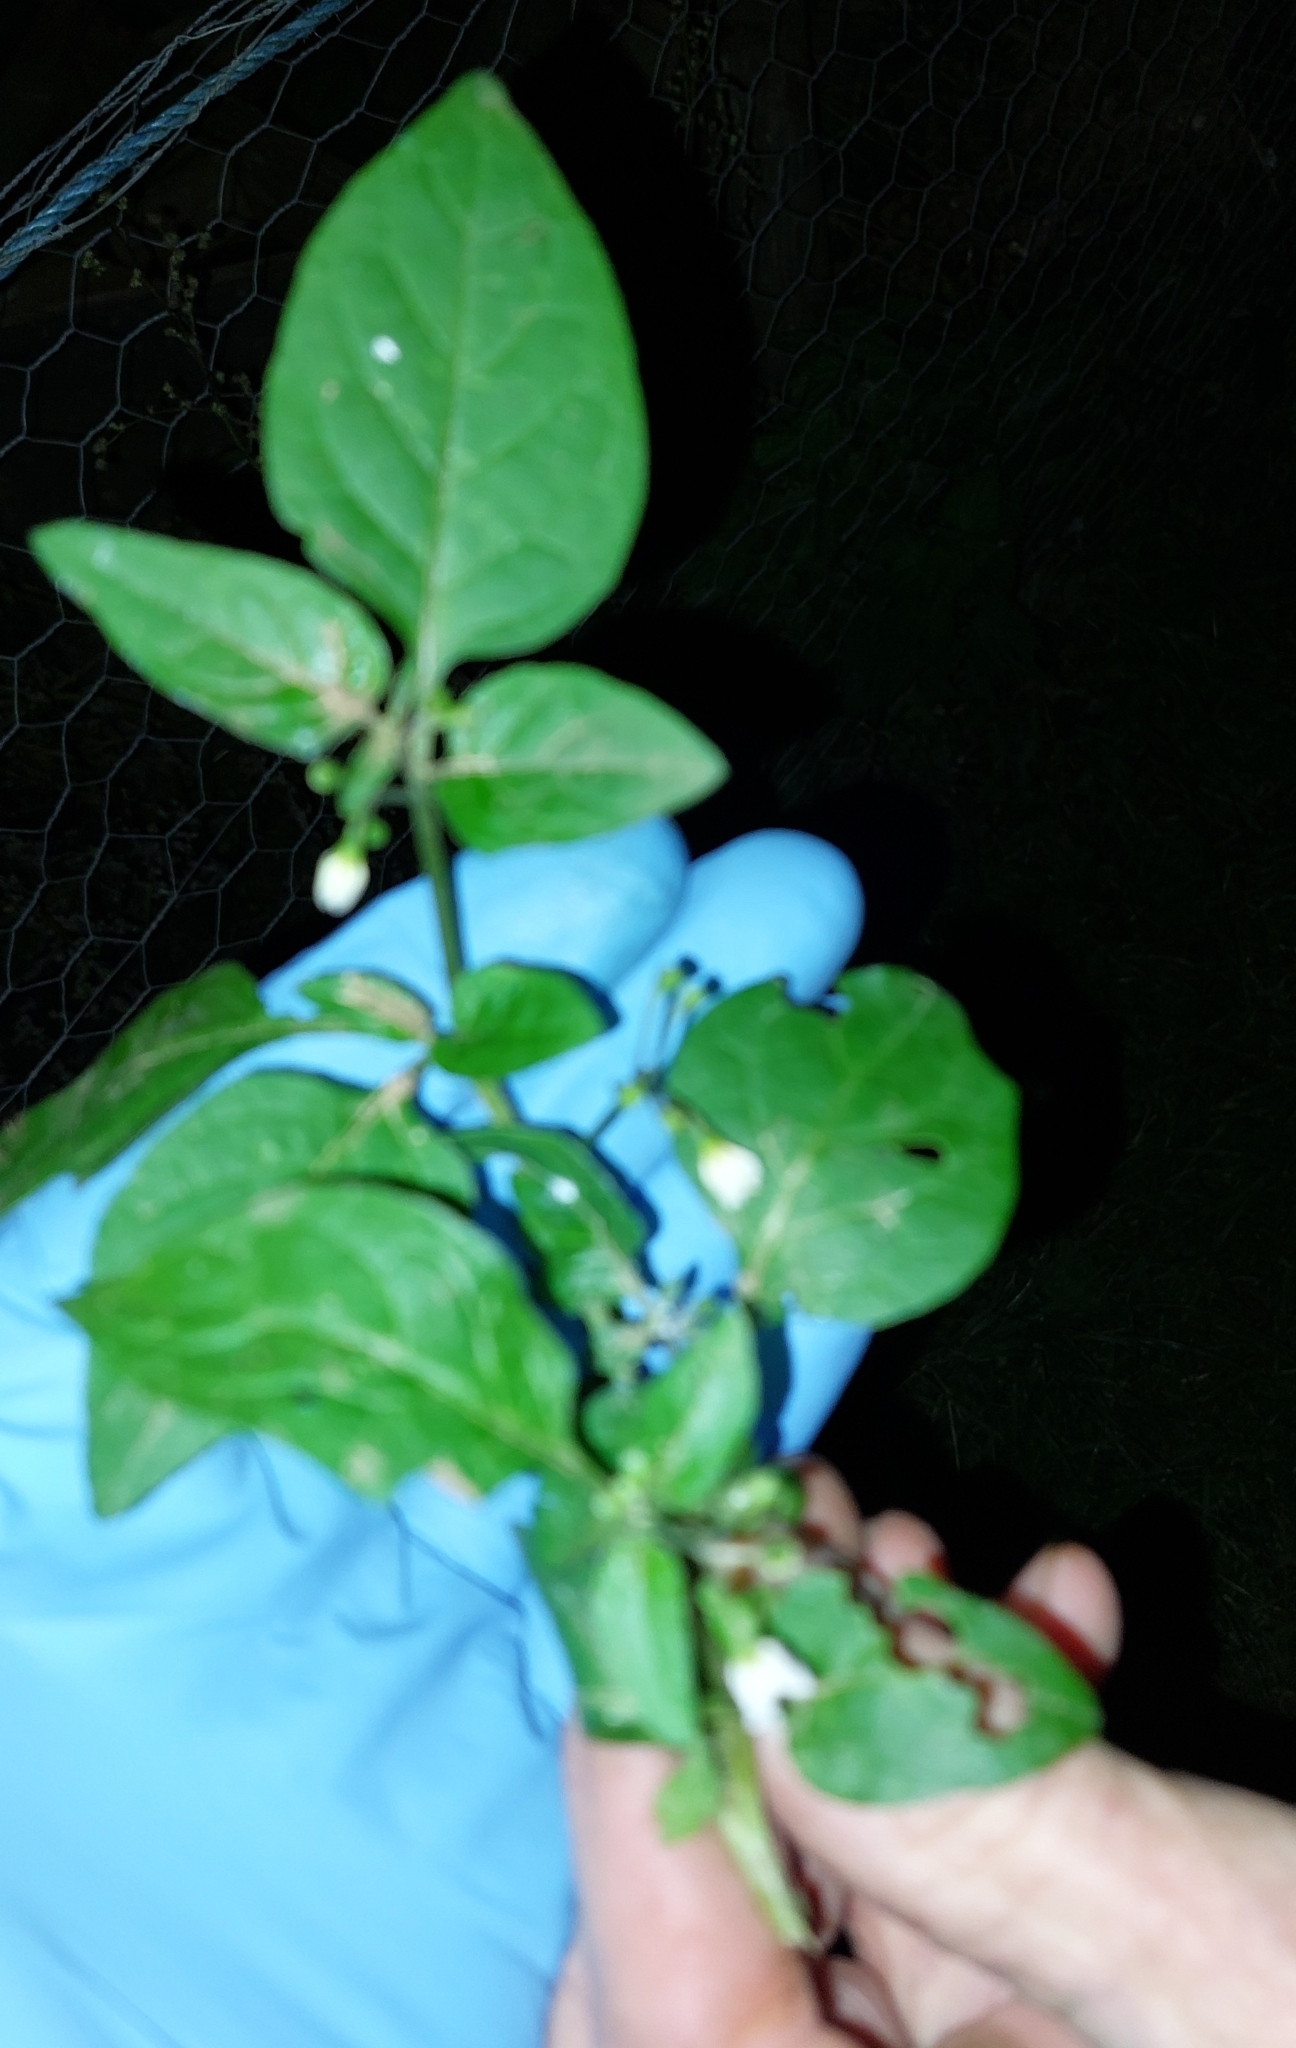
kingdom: Plantae
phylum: Tracheophyta
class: Magnoliopsida
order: Solanales
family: Solanaceae
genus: Solanum
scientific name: Solanum nigrum
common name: Black nightshade
